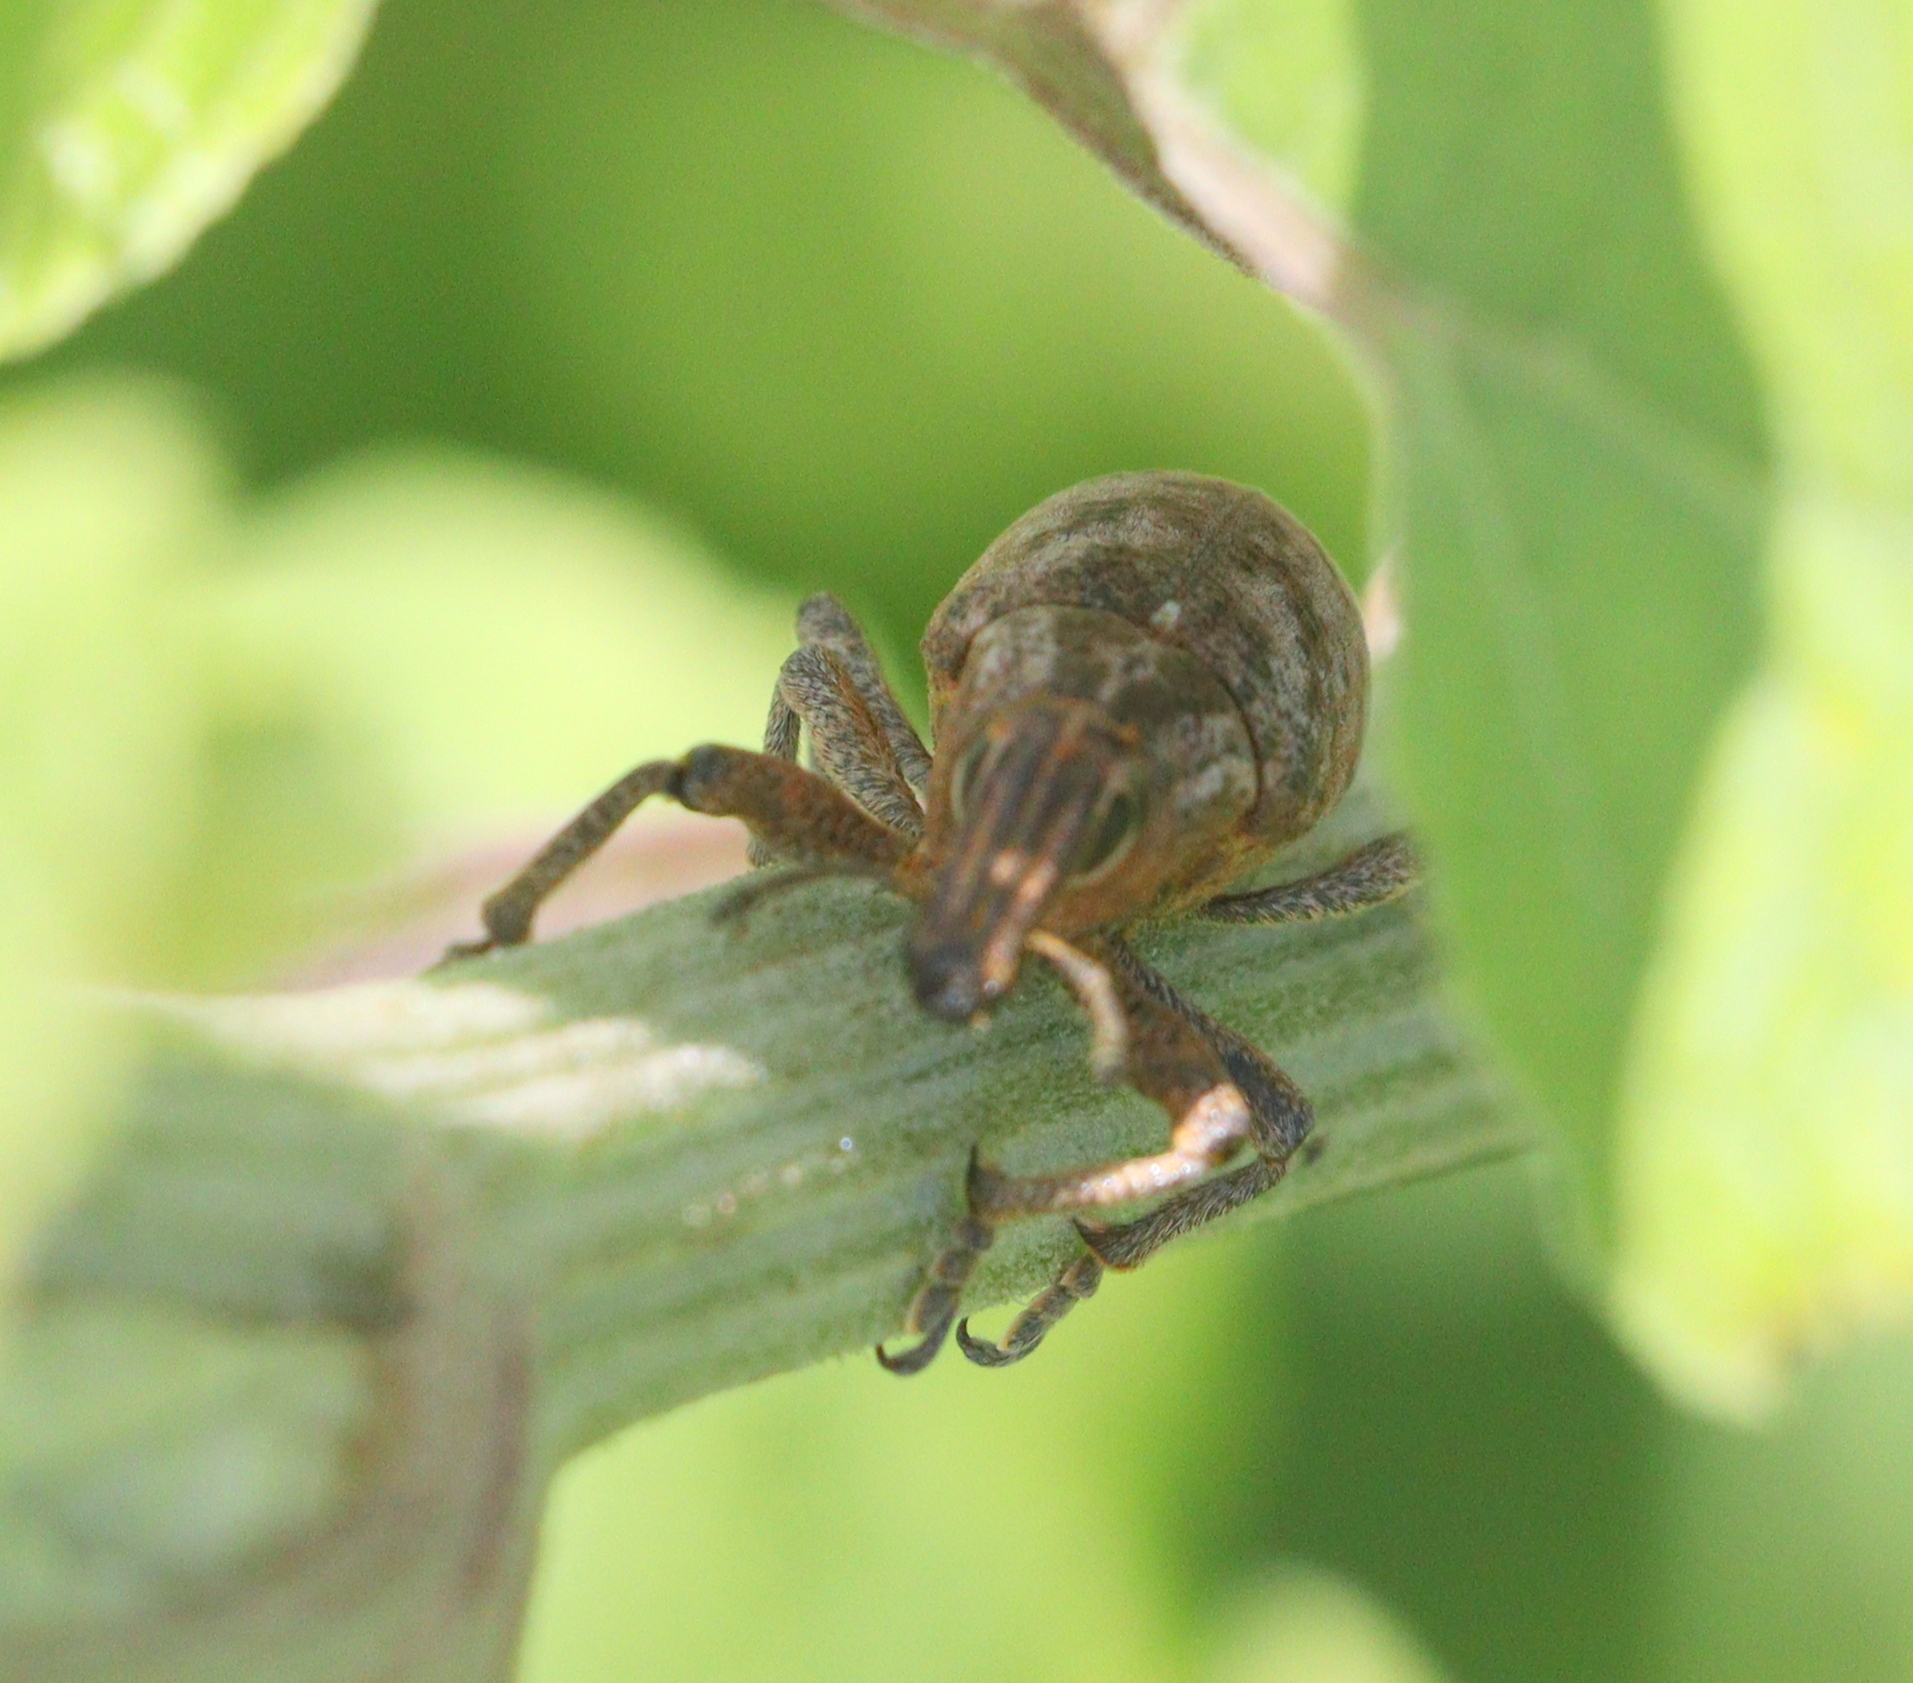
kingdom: Animalia
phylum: Arthropoda
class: Insecta
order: Coleoptera
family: Curculionidae
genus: Cleonis
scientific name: Cleonis pigra
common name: Large thistle weevil
